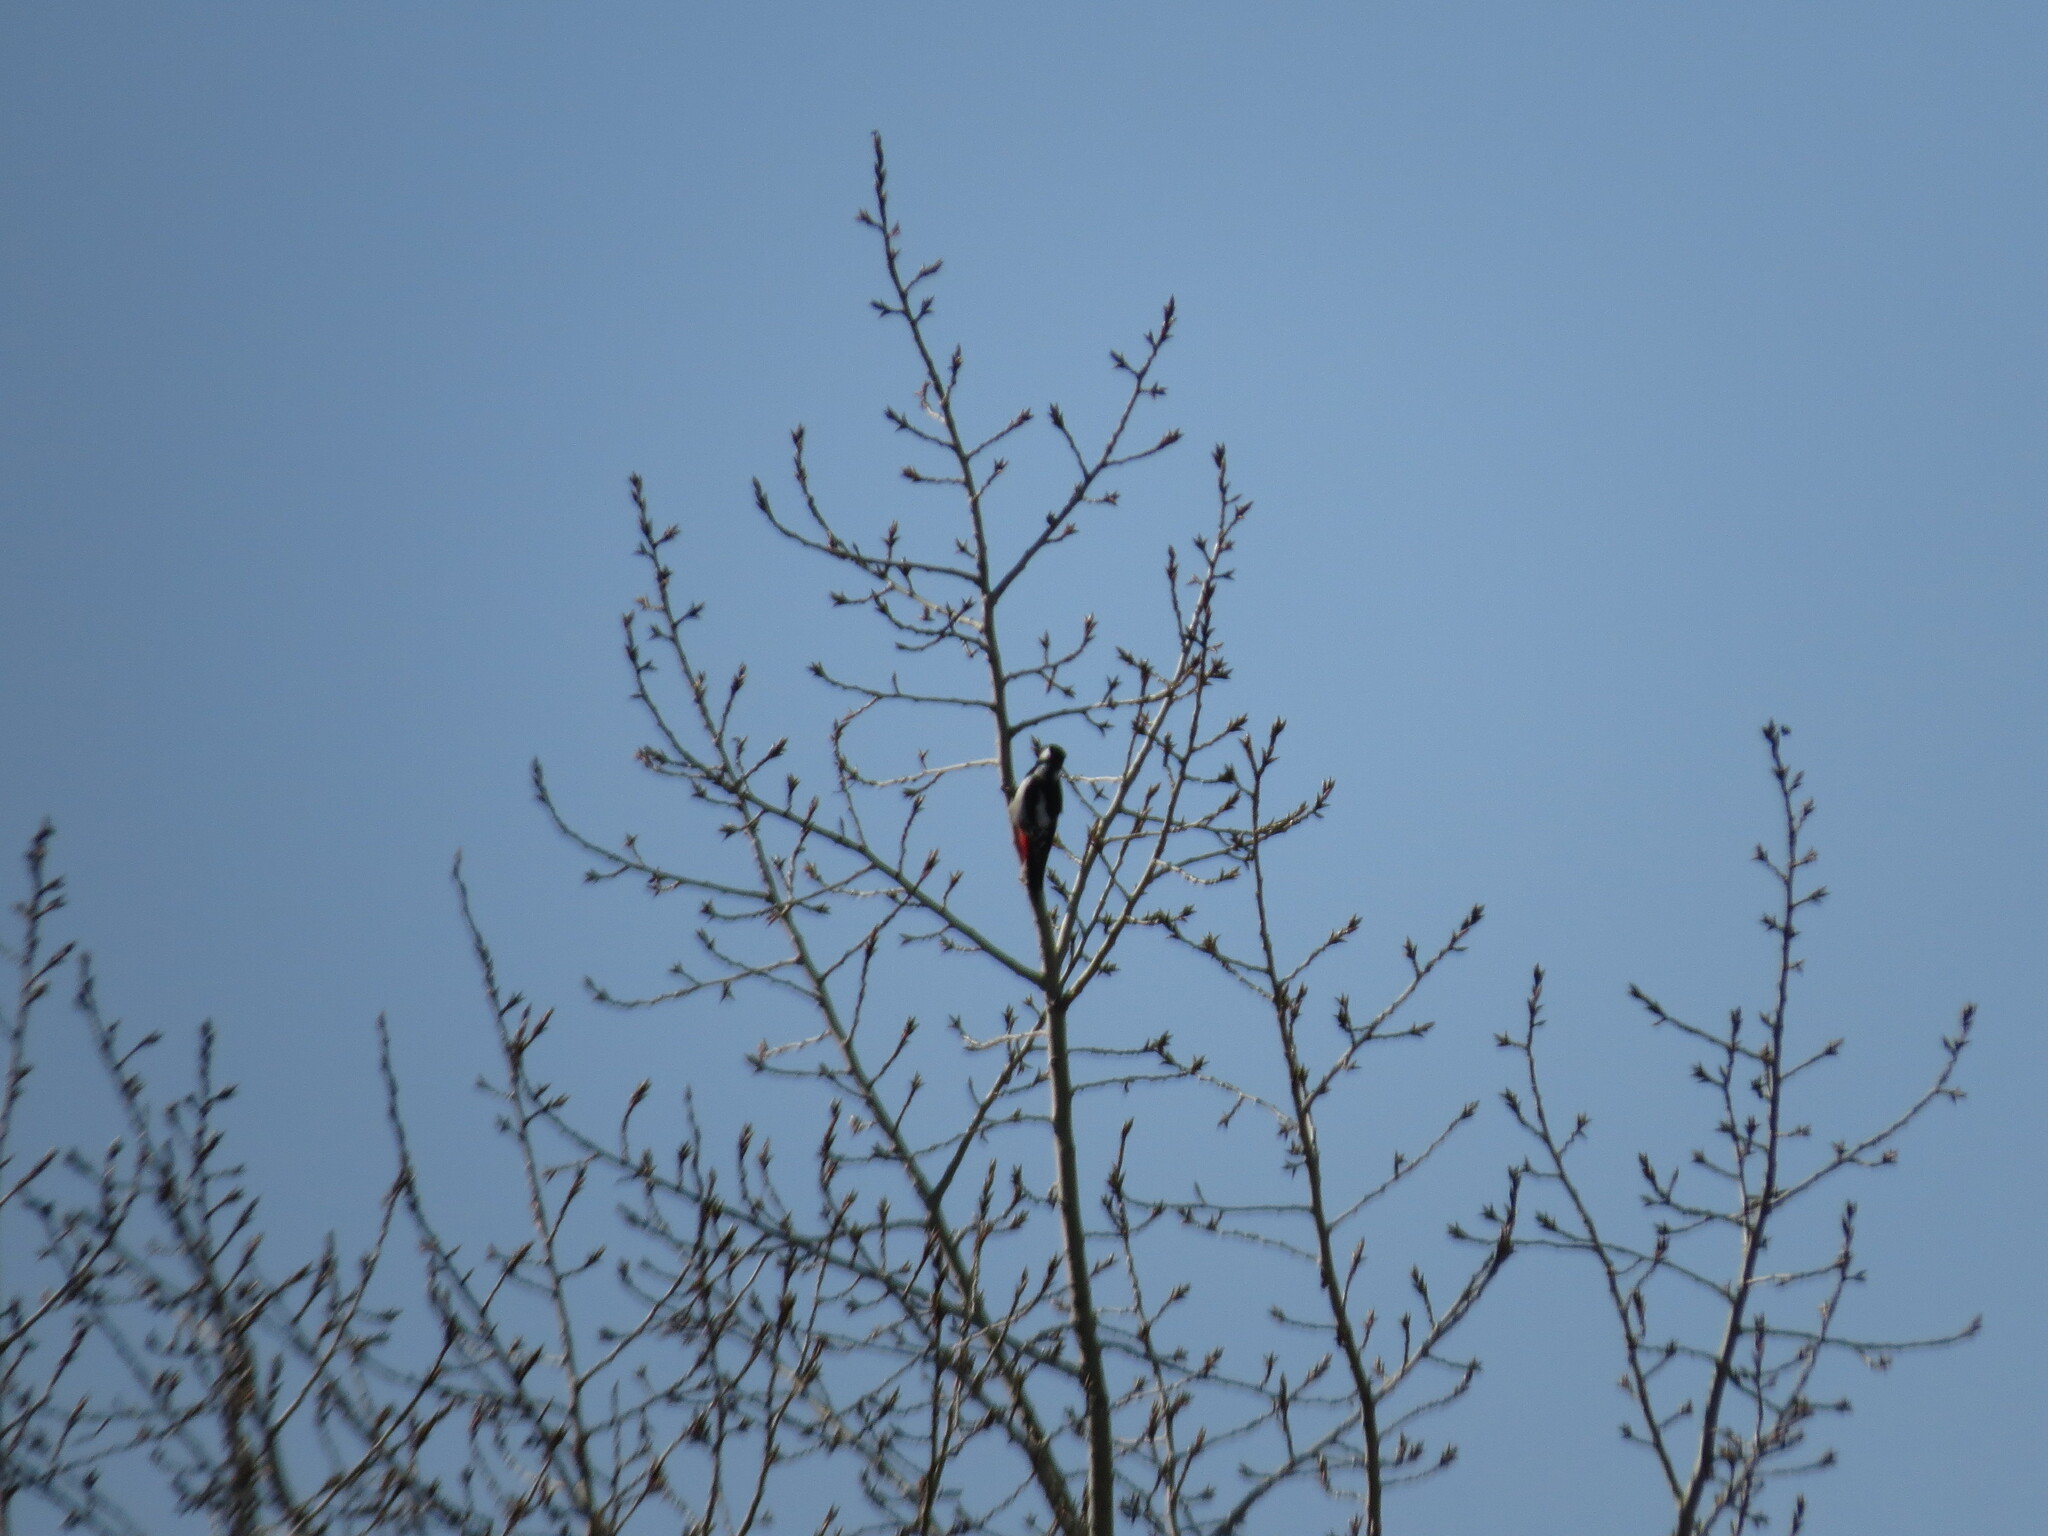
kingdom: Animalia
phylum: Chordata
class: Aves
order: Piciformes
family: Picidae
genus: Dendrocopos
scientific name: Dendrocopos major
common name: Great spotted woodpecker
